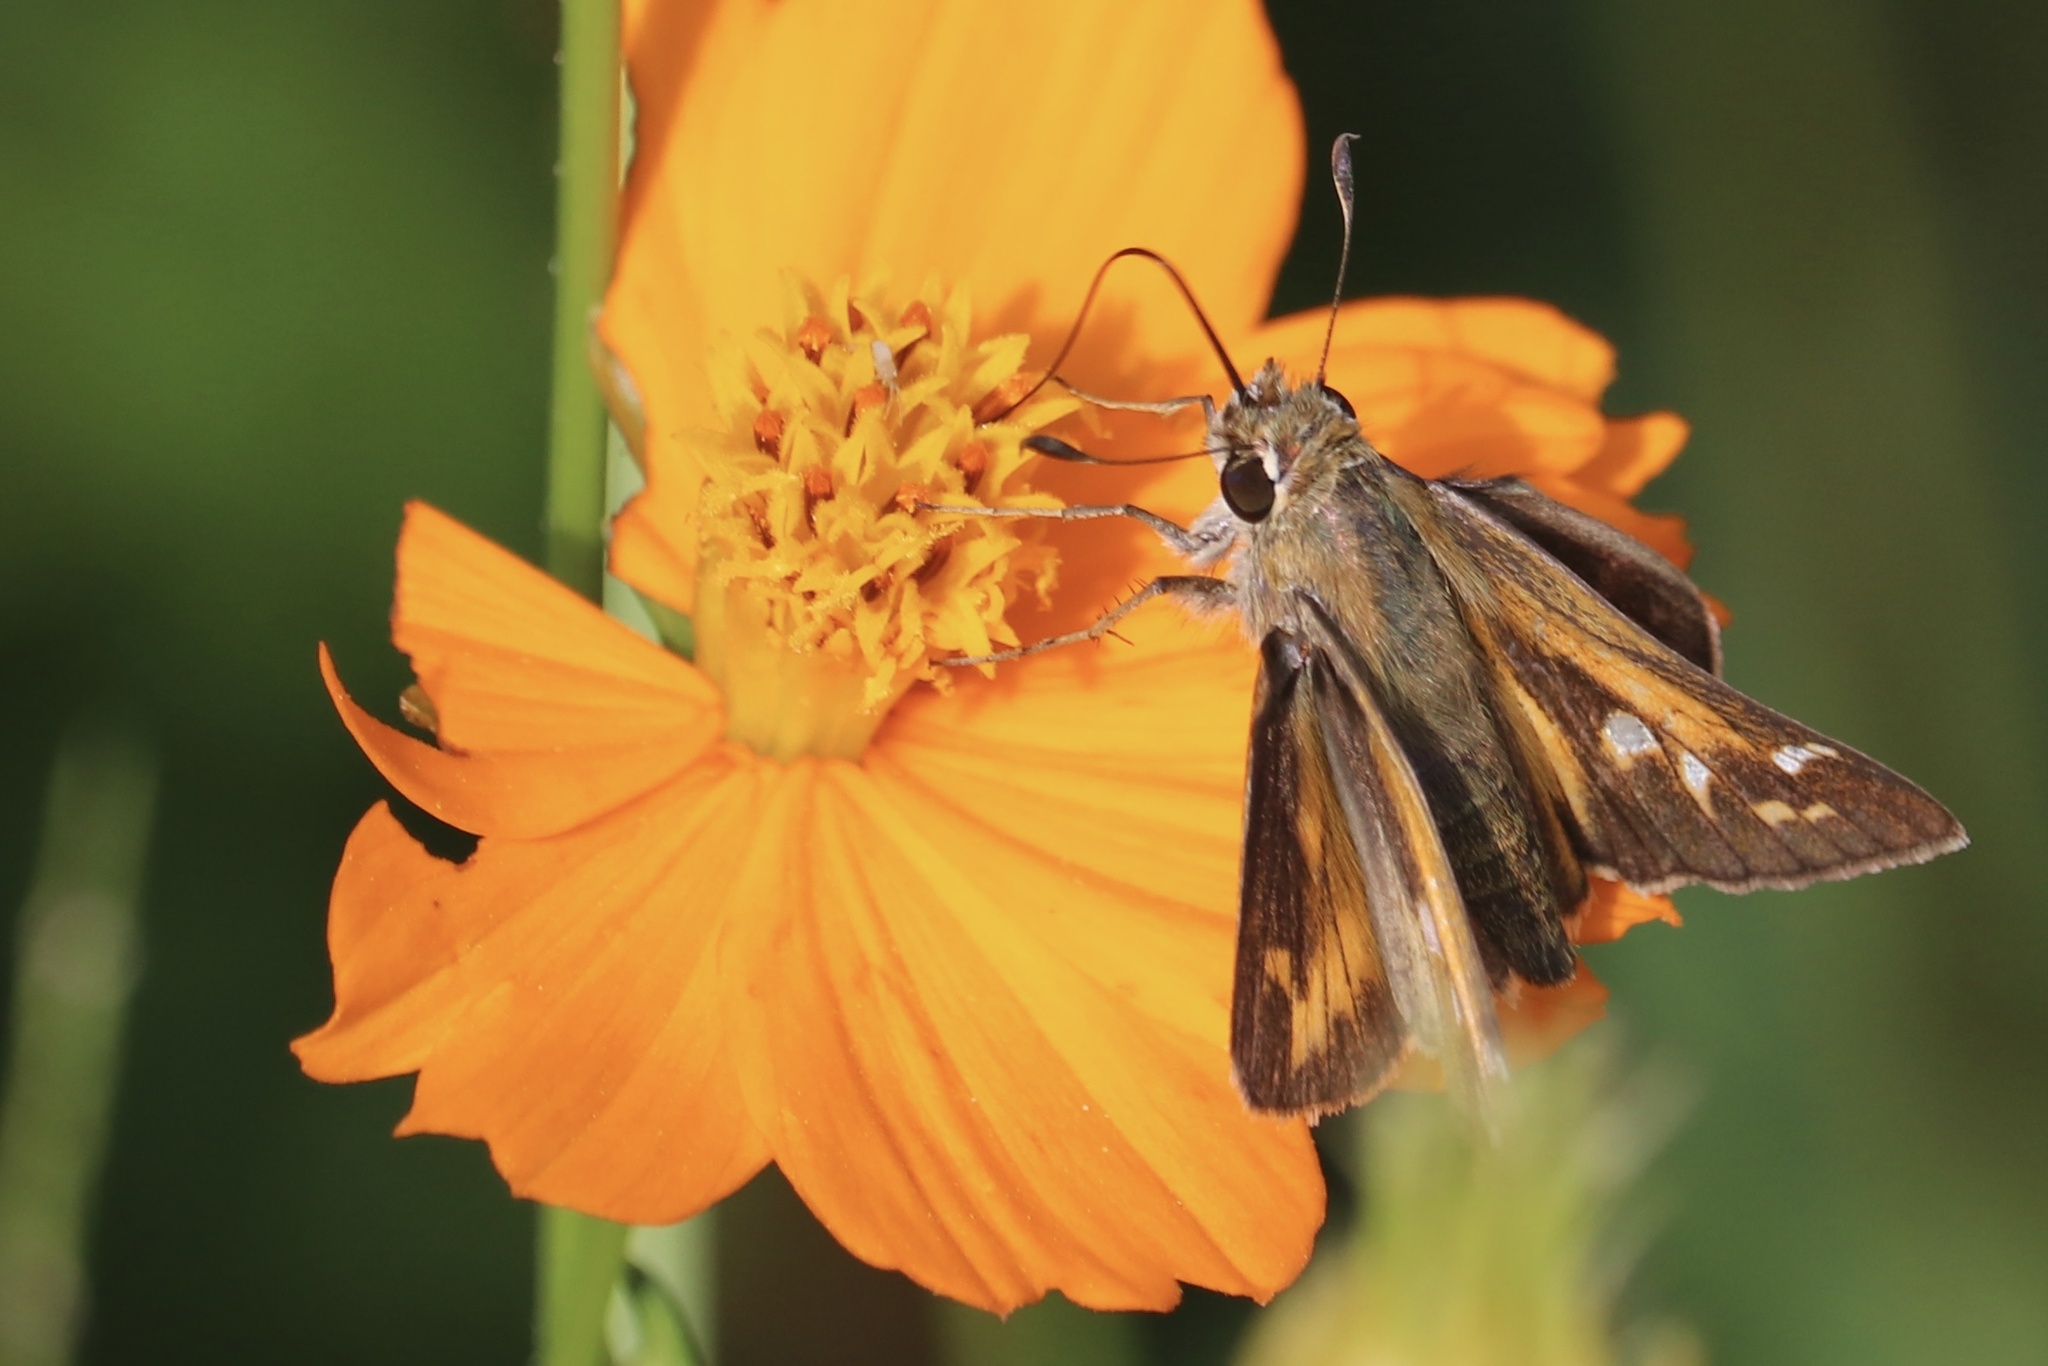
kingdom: Animalia
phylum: Arthropoda
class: Insecta
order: Lepidoptera
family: Hesperiidae
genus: Atalopedes
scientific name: Atalopedes
